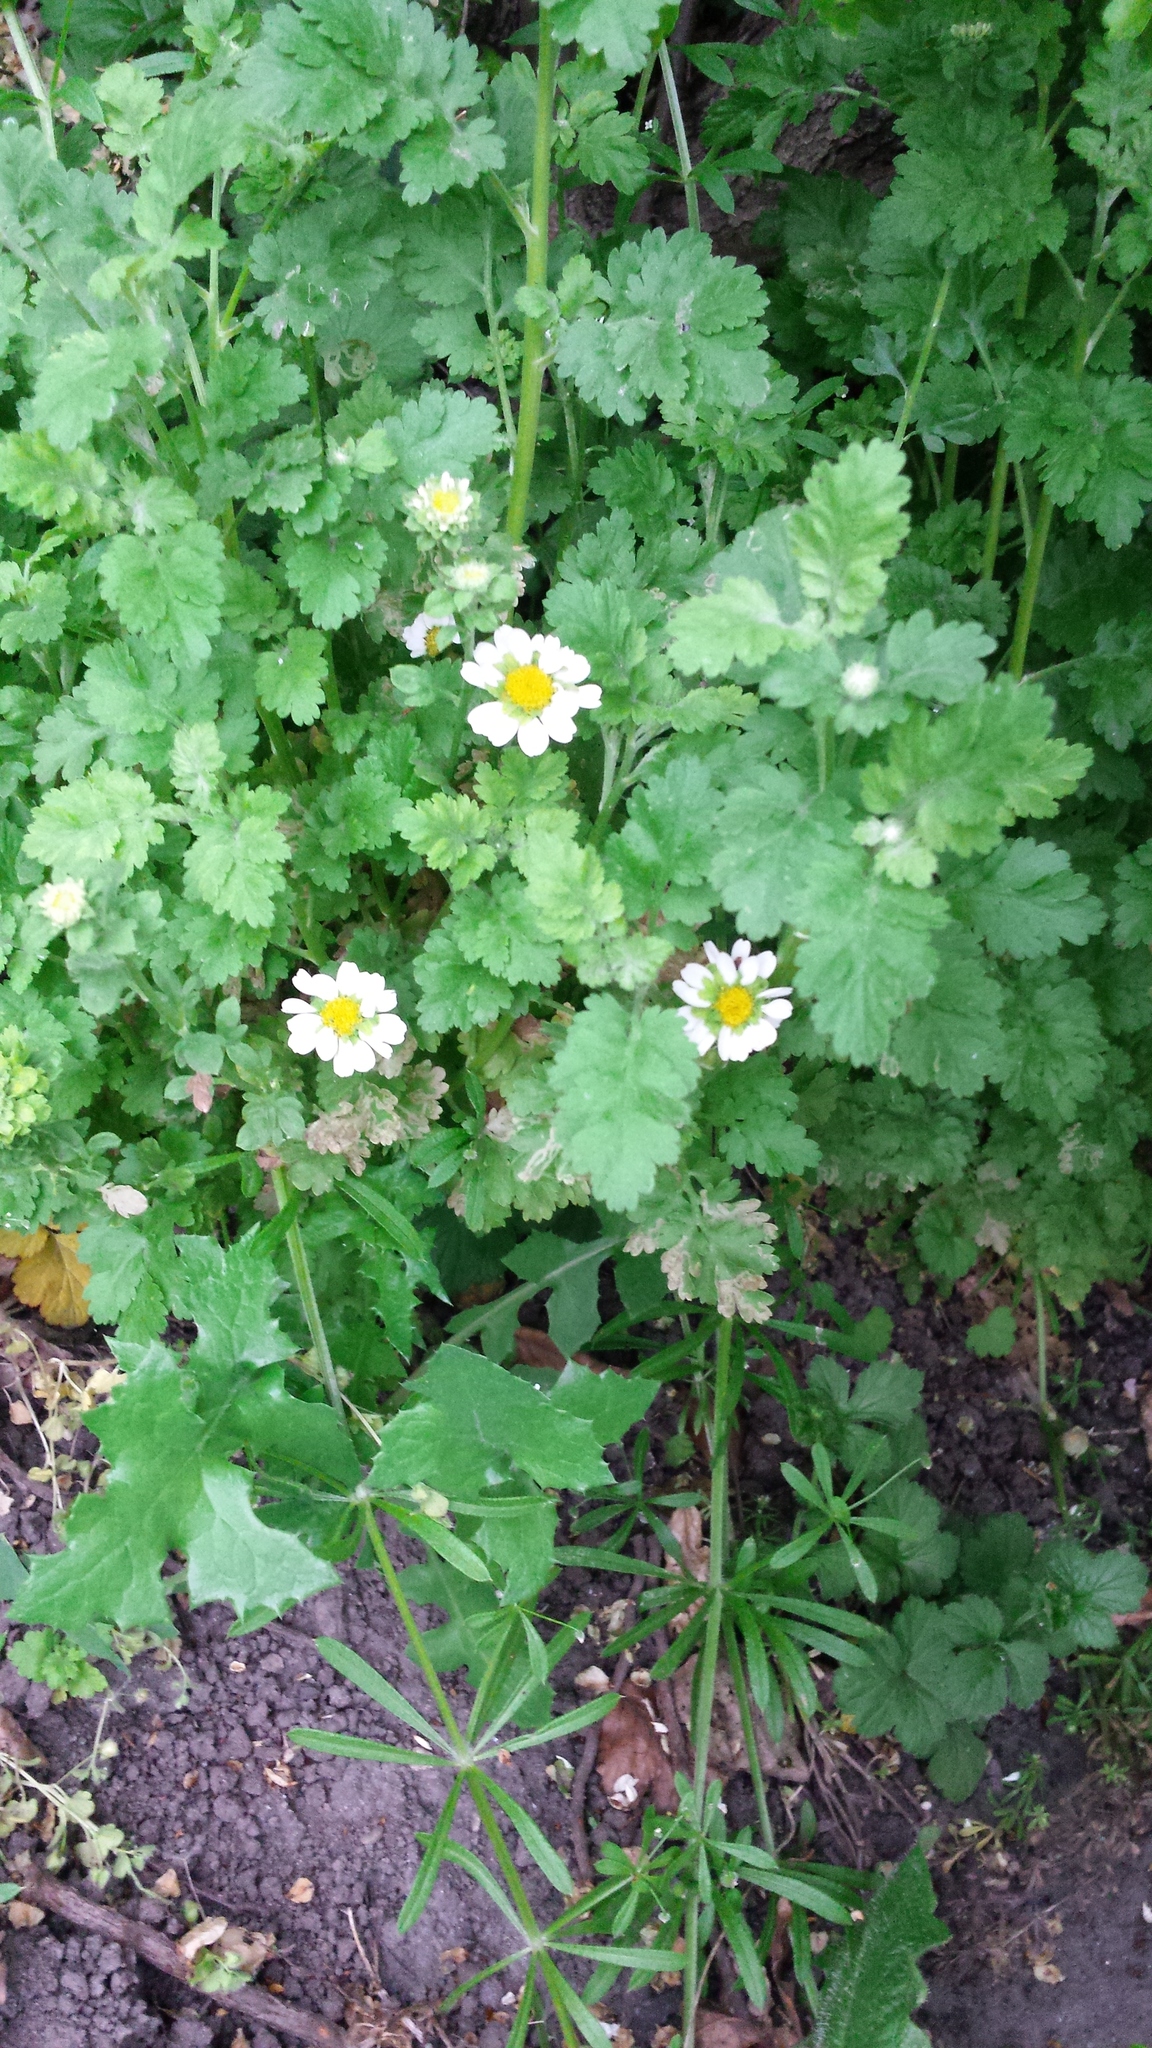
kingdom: Plantae
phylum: Tracheophyta
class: Magnoliopsida
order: Asterales
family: Asteraceae
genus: Tanacetum
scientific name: Tanacetum parthenium
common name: Feverfew
